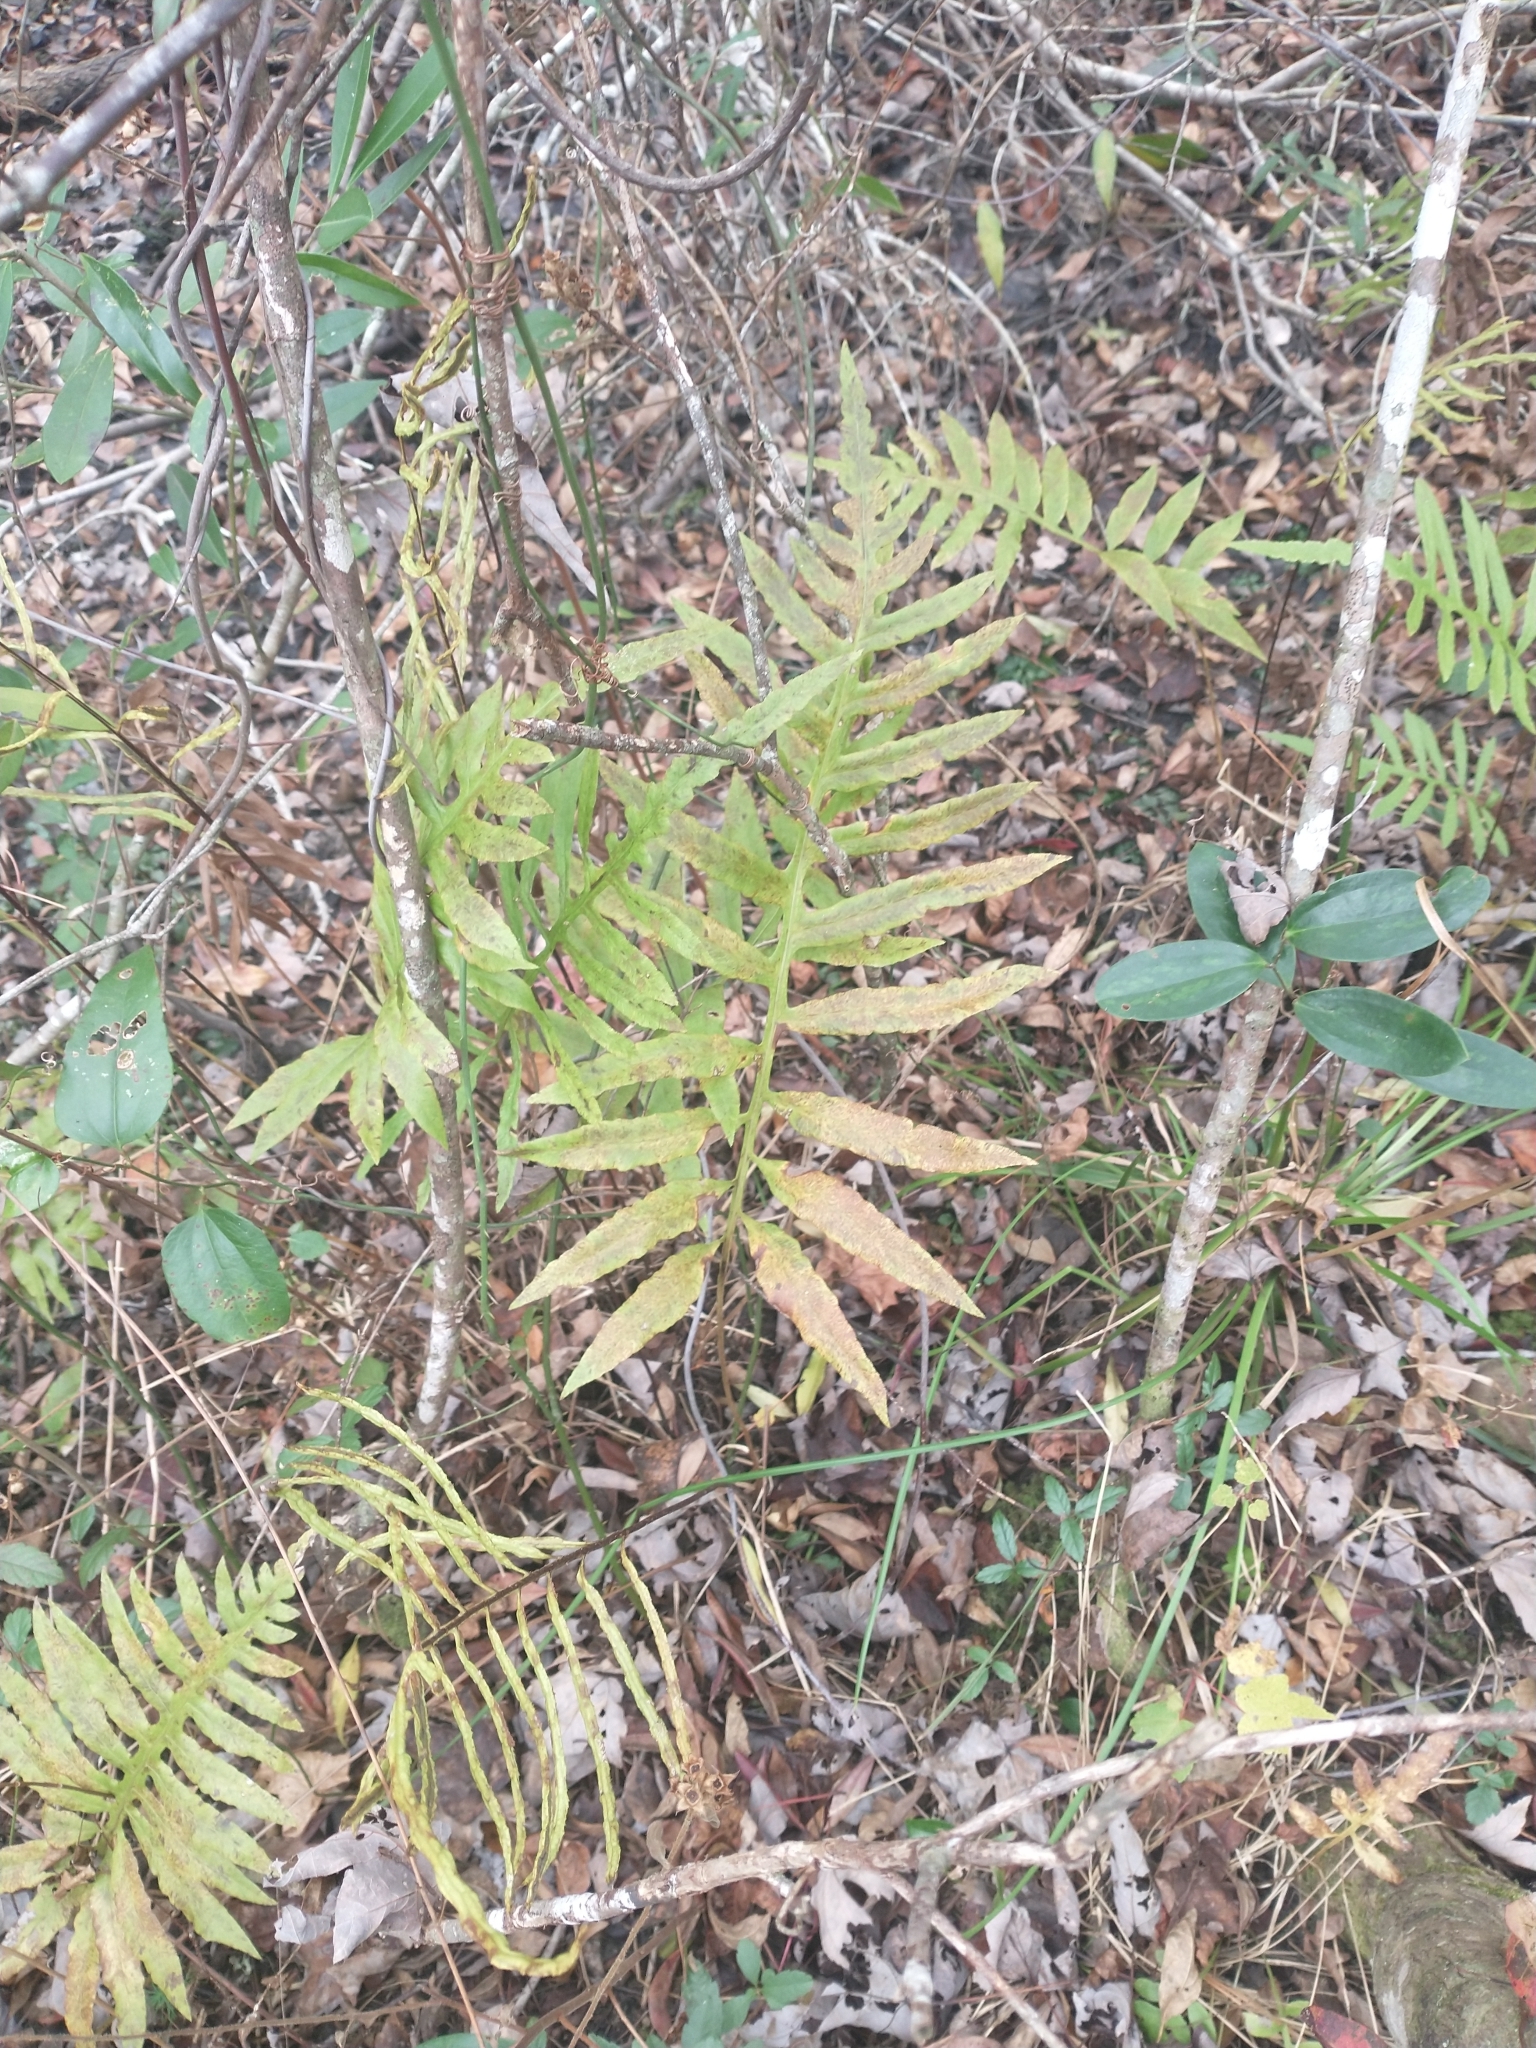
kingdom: Plantae
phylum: Tracheophyta
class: Polypodiopsida
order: Polypodiales
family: Onocleaceae
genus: Onoclea
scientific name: Onoclea sensibilis
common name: Sensitive fern
